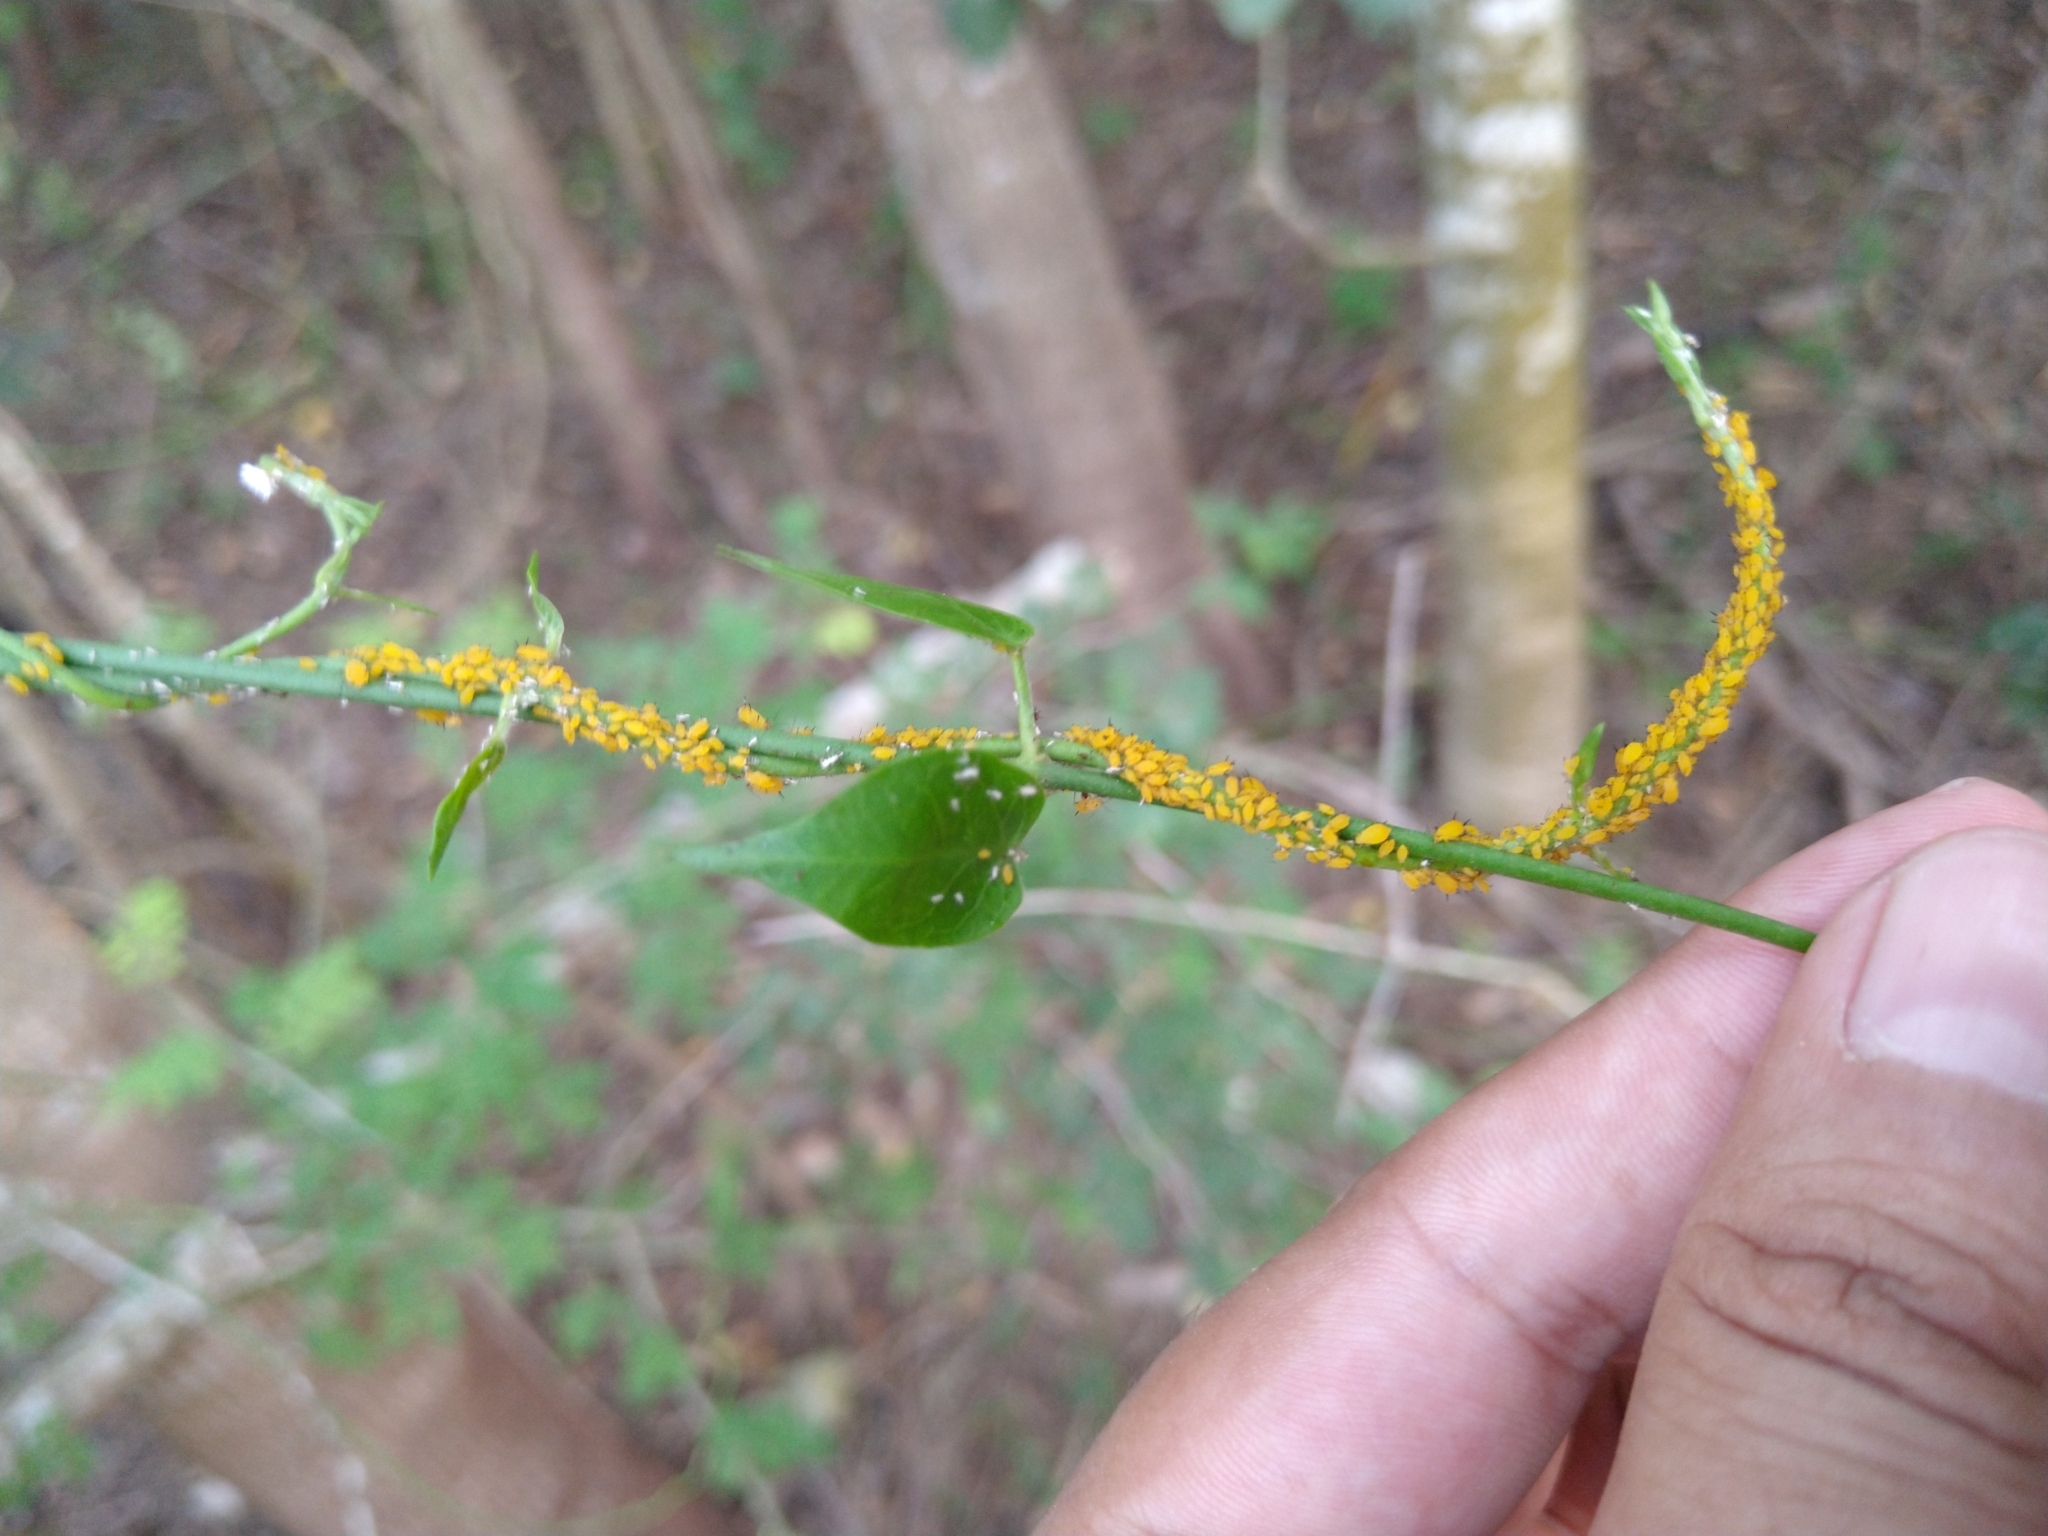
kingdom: Animalia
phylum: Arthropoda
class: Insecta
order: Hemiptera
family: Aphididae
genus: Aphis
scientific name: Aphis nerii
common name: Oleander aphid
